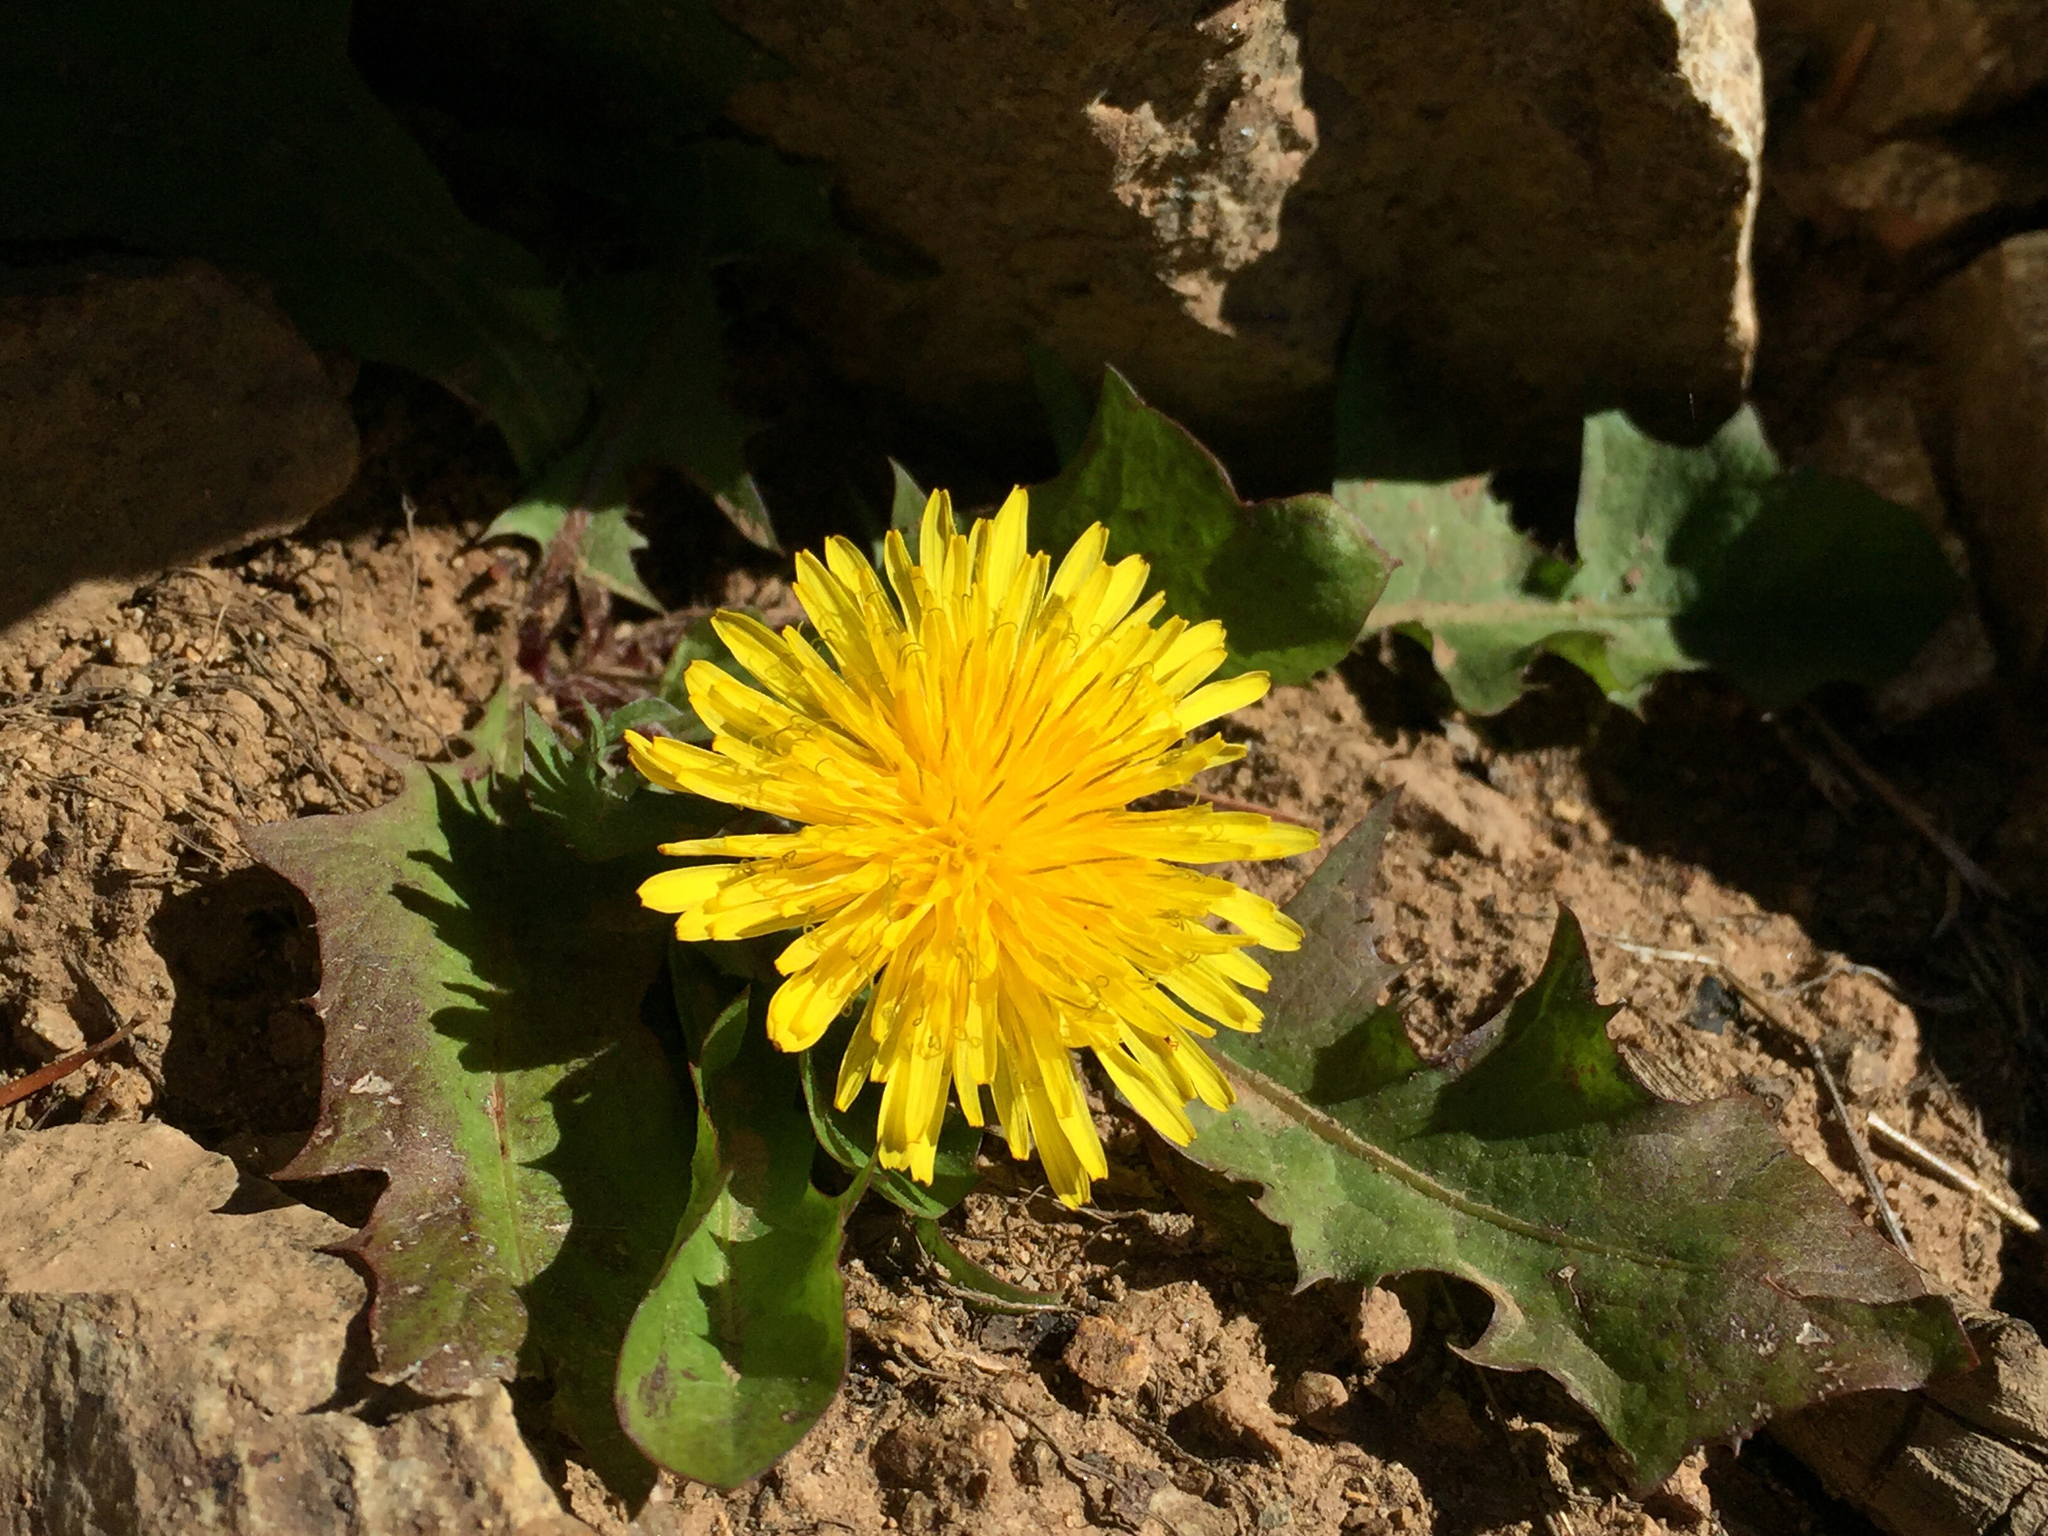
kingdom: Plantae
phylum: Tracheophyta
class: Magnoliopsida
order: Asterales
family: Asteraceae
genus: Taraxacum
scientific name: Taraxacum officinale
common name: Common dandelion
